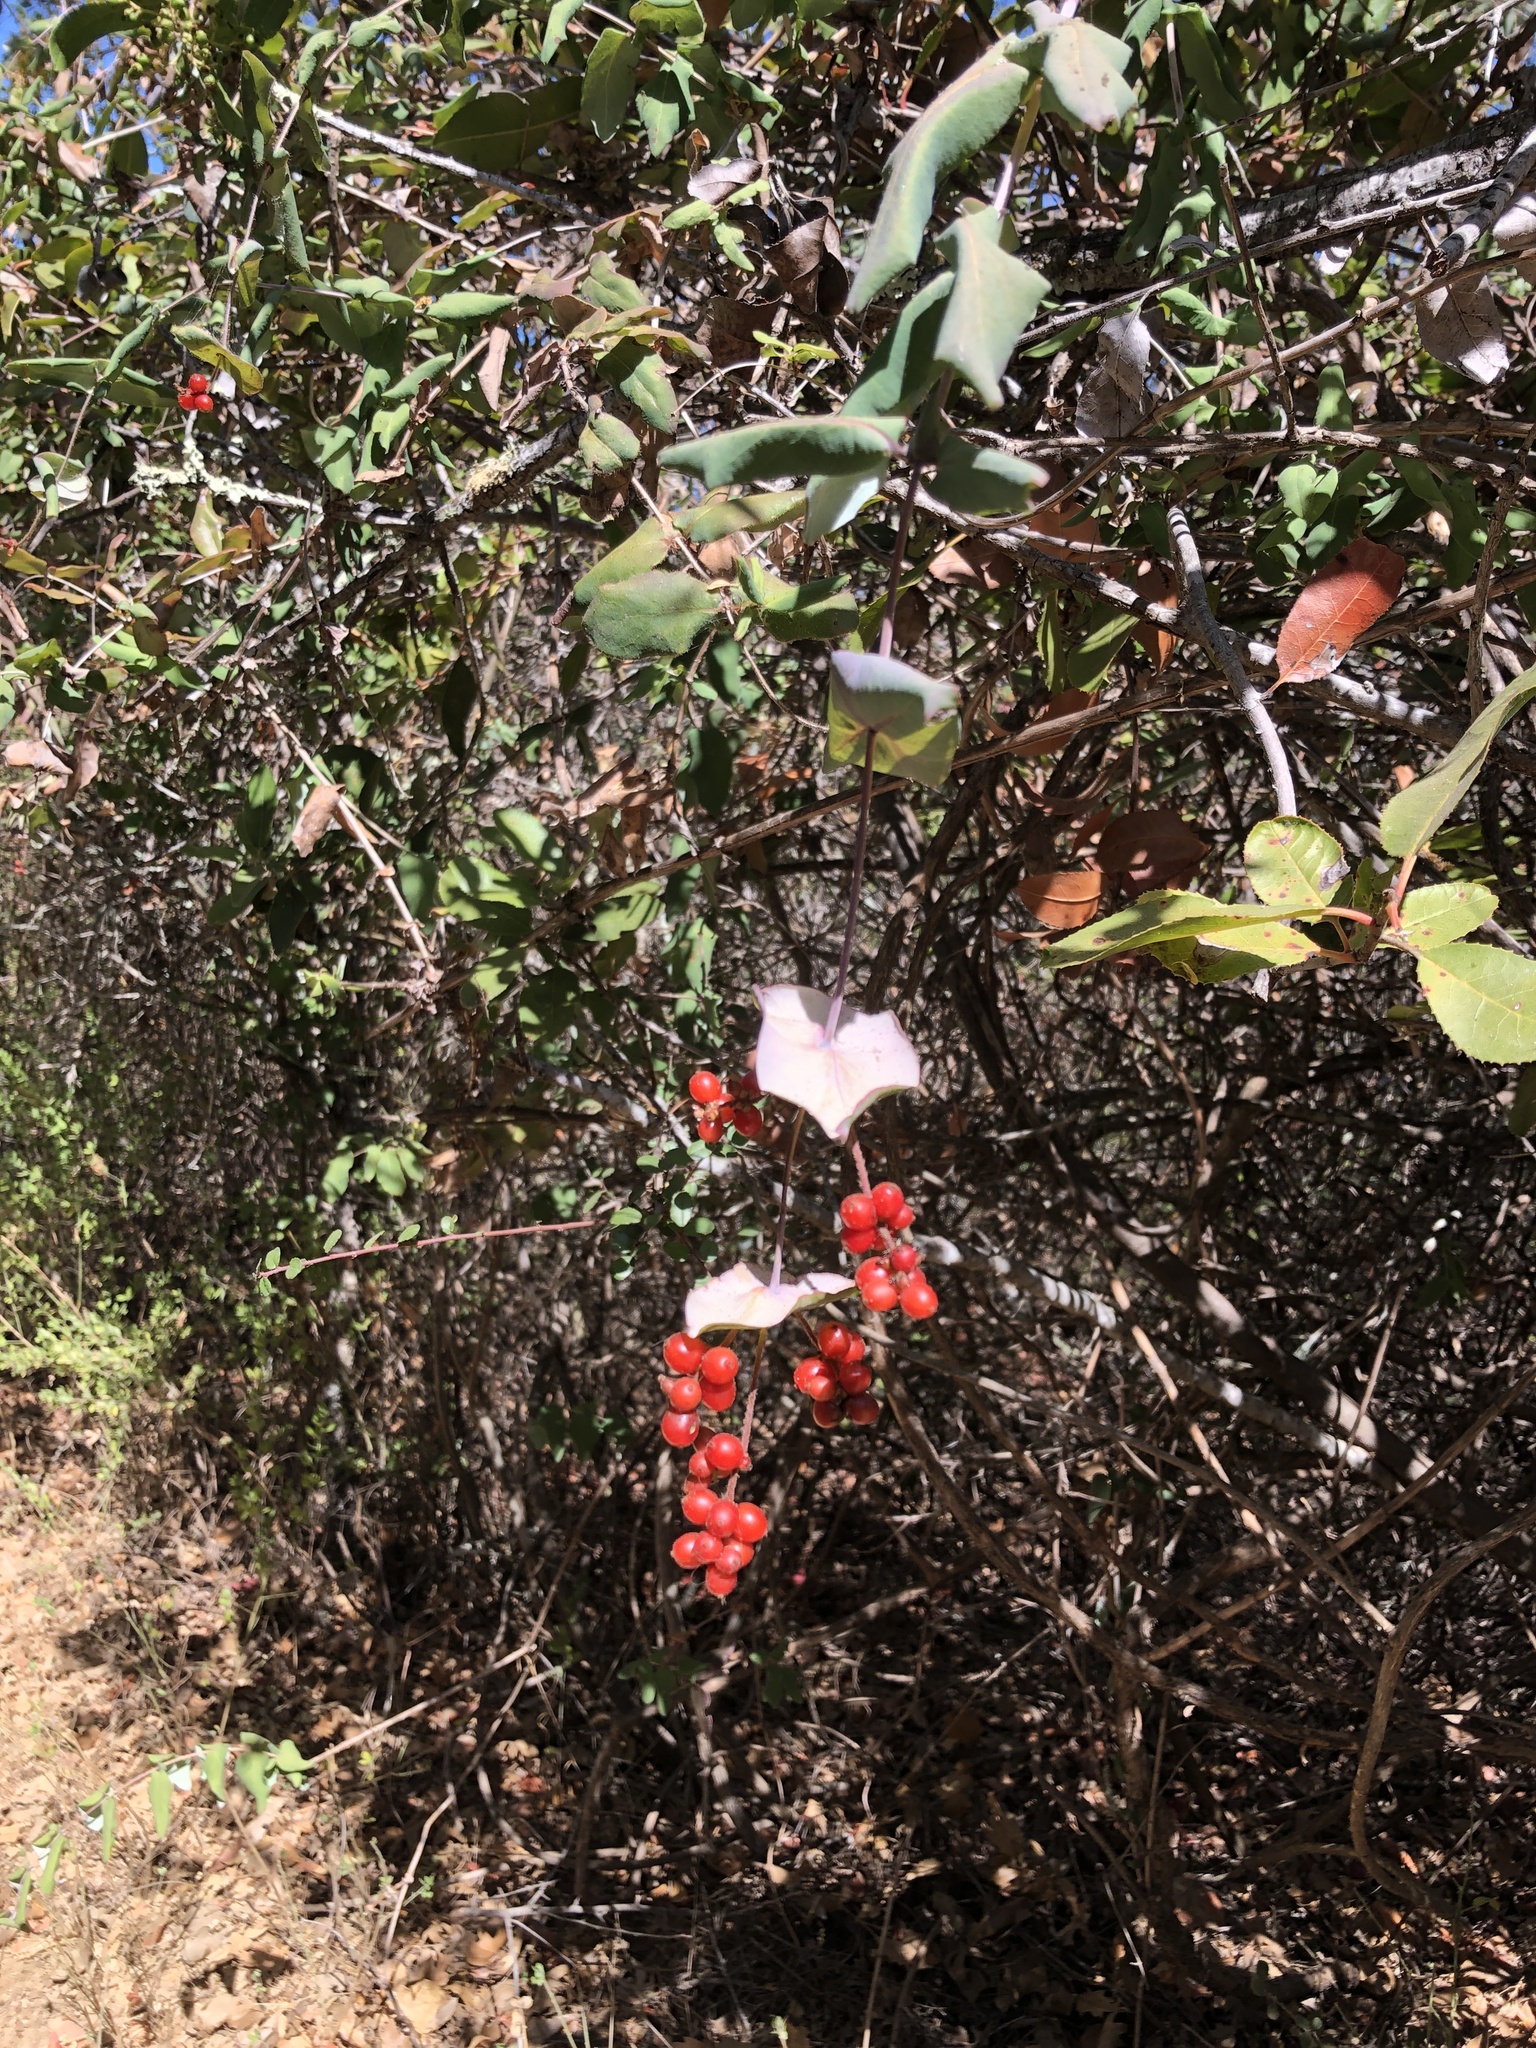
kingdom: Plantae
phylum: Tracheophyta
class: Magnoliopsida
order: Dipsacales
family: Caprifoliaceae
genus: Lonicera
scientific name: Lonicera hispidula
